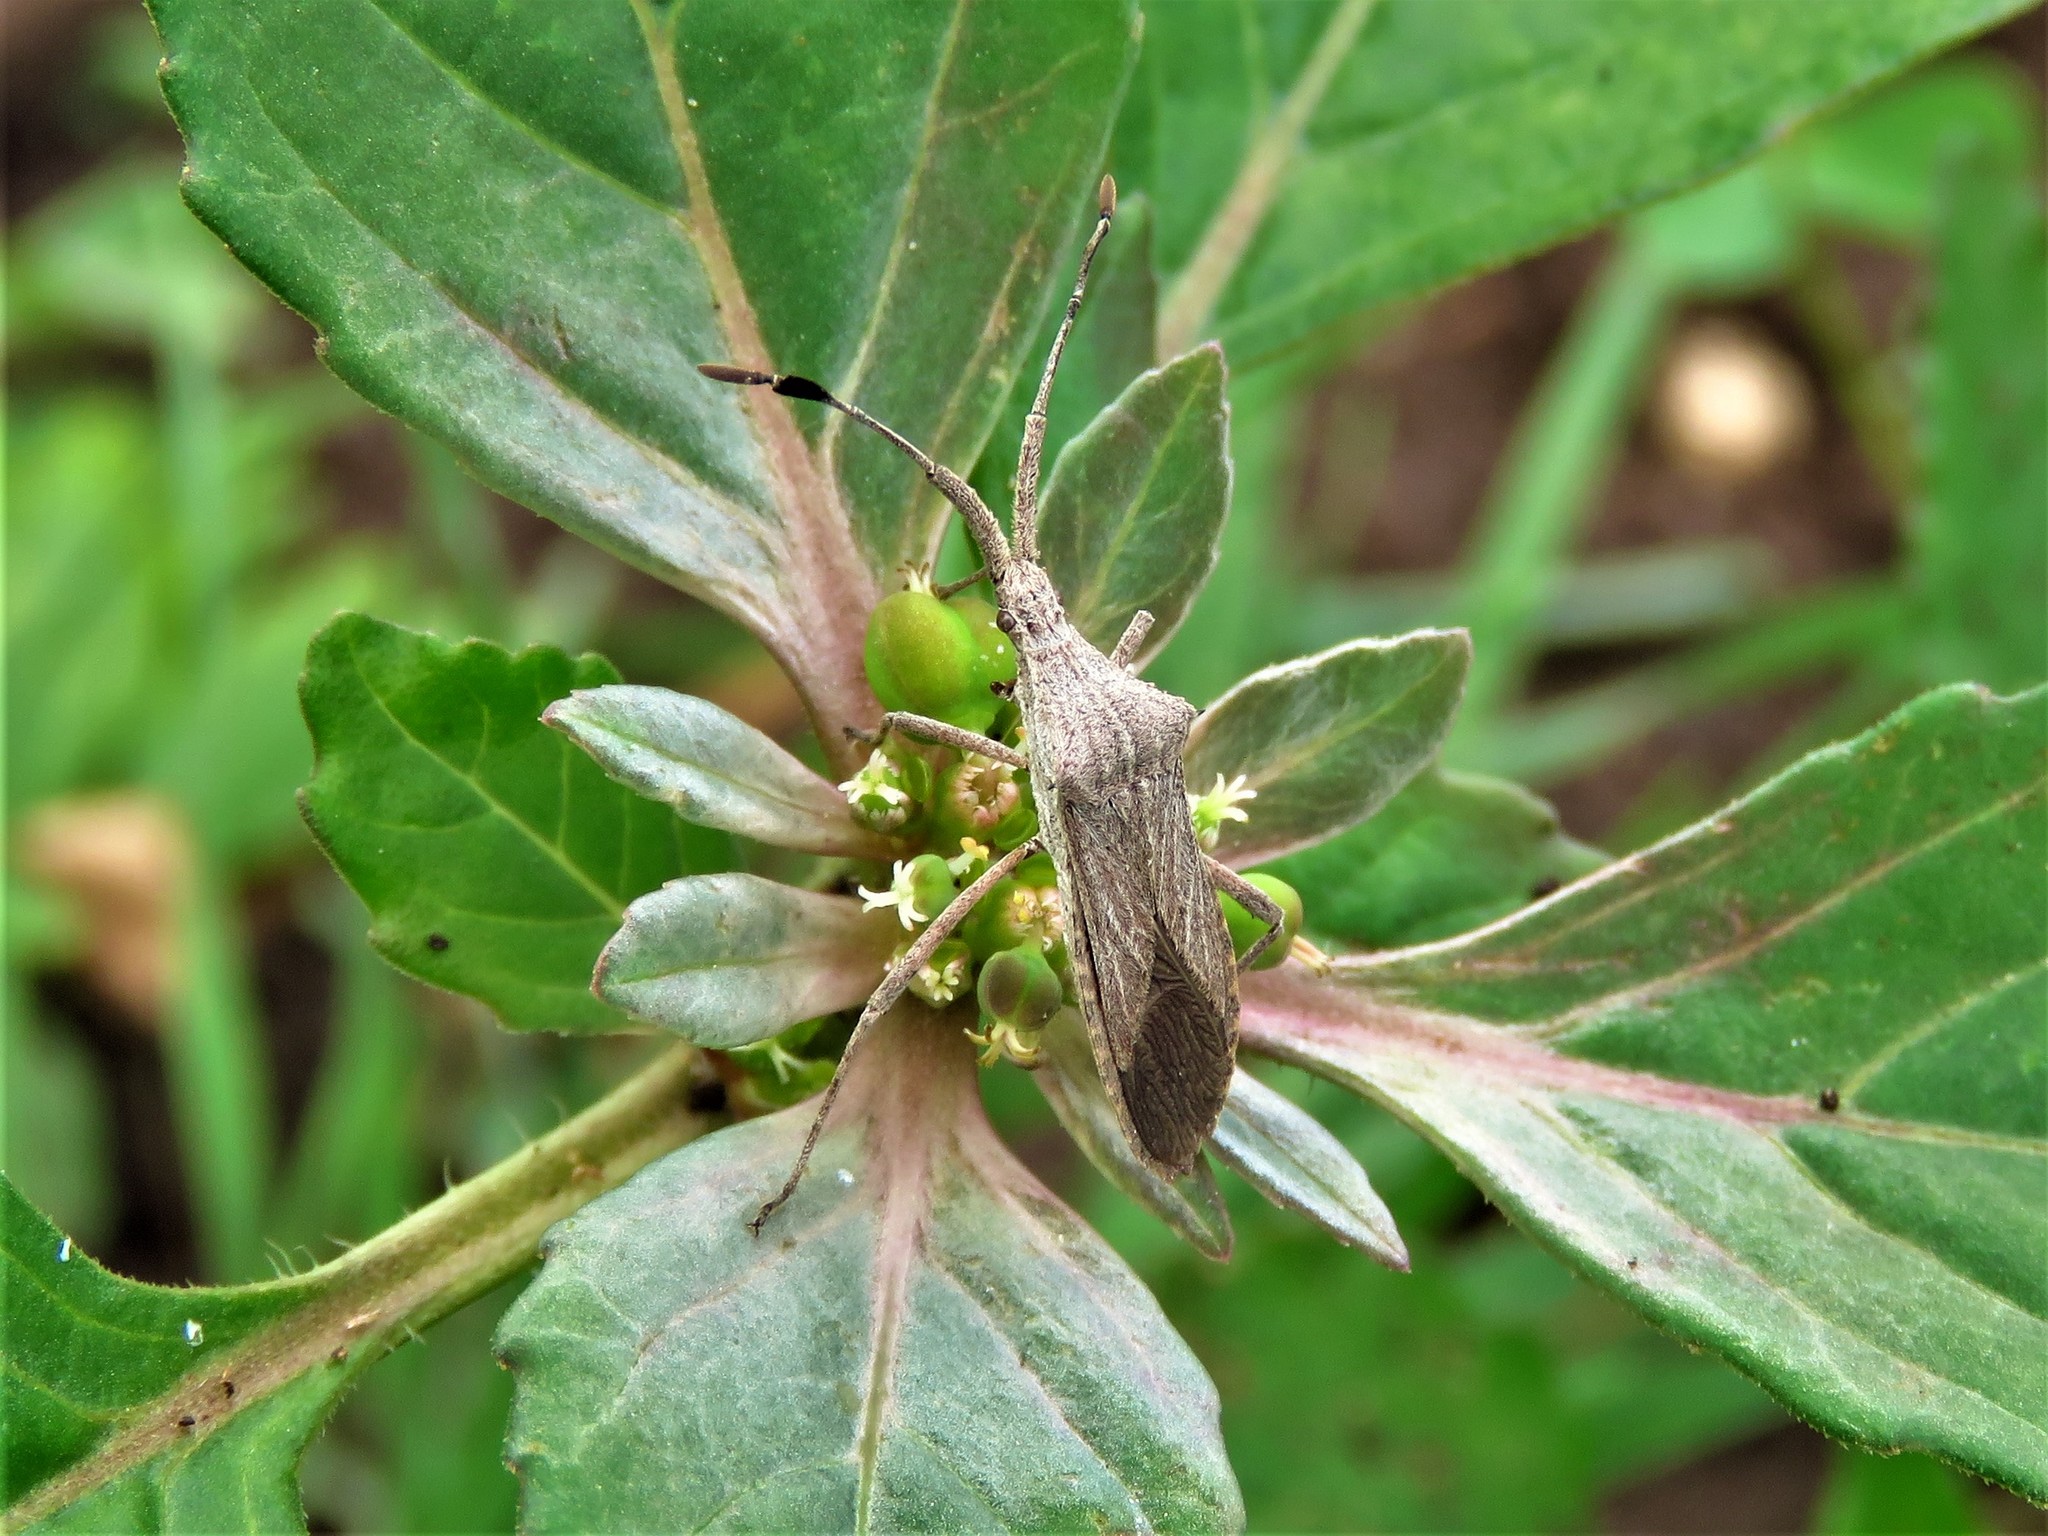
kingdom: Animalia
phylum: Arthropoda
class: Insecta
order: Hemiptera
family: Coreidae
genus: Chariesterus
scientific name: Chariesterus antennator
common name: Flat horned coreid
